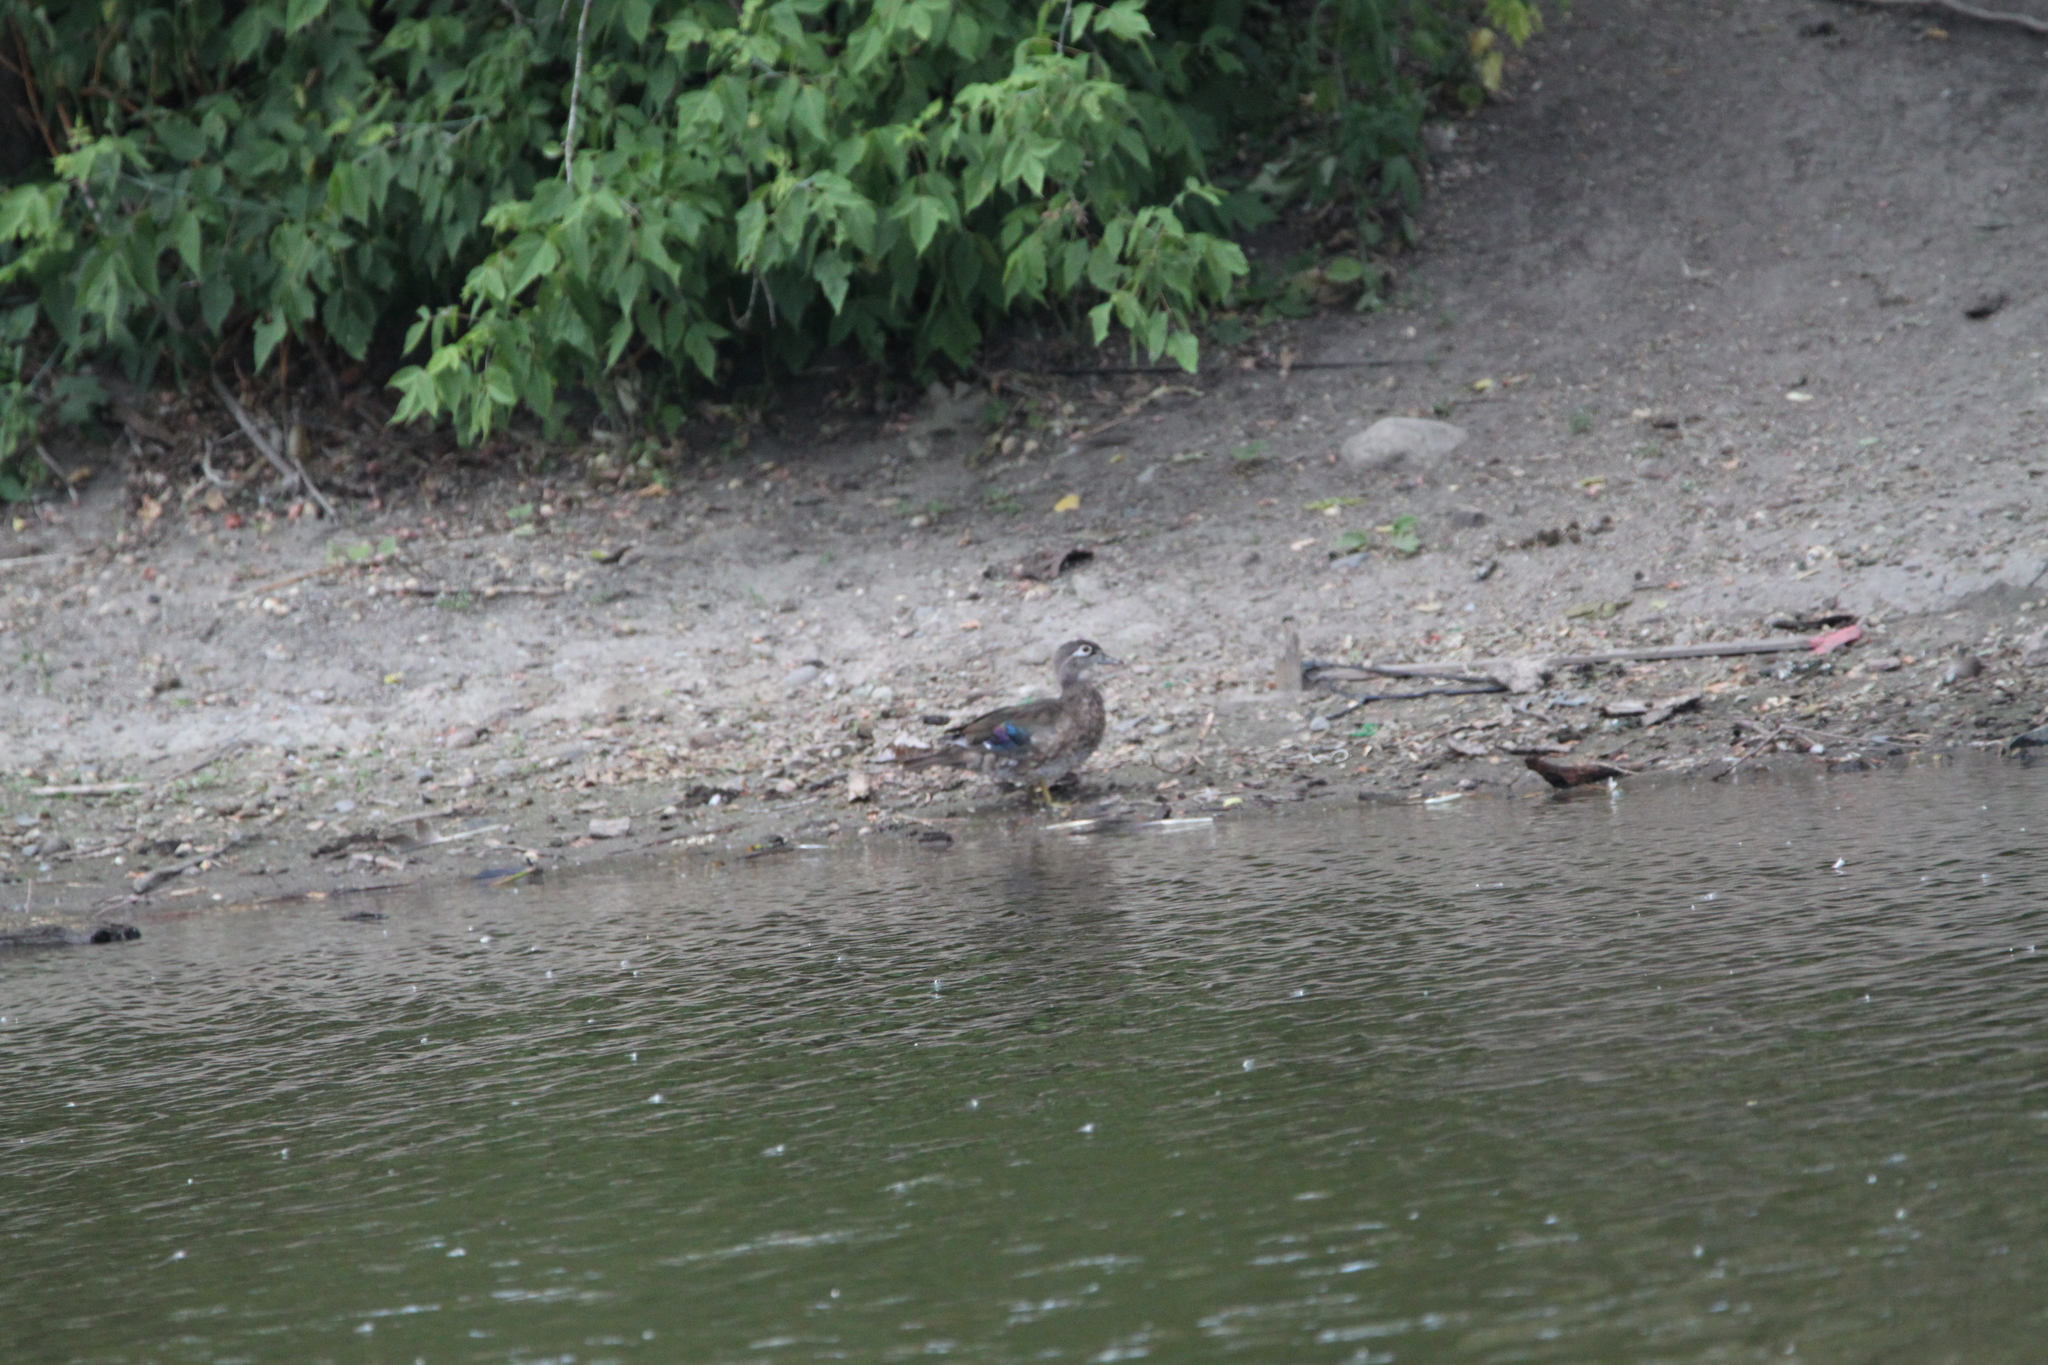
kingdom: Animalia
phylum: Chordata
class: Aves
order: Anseriformes
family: Anatidae
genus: Aix
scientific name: Aix sponsa
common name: Wood duck
